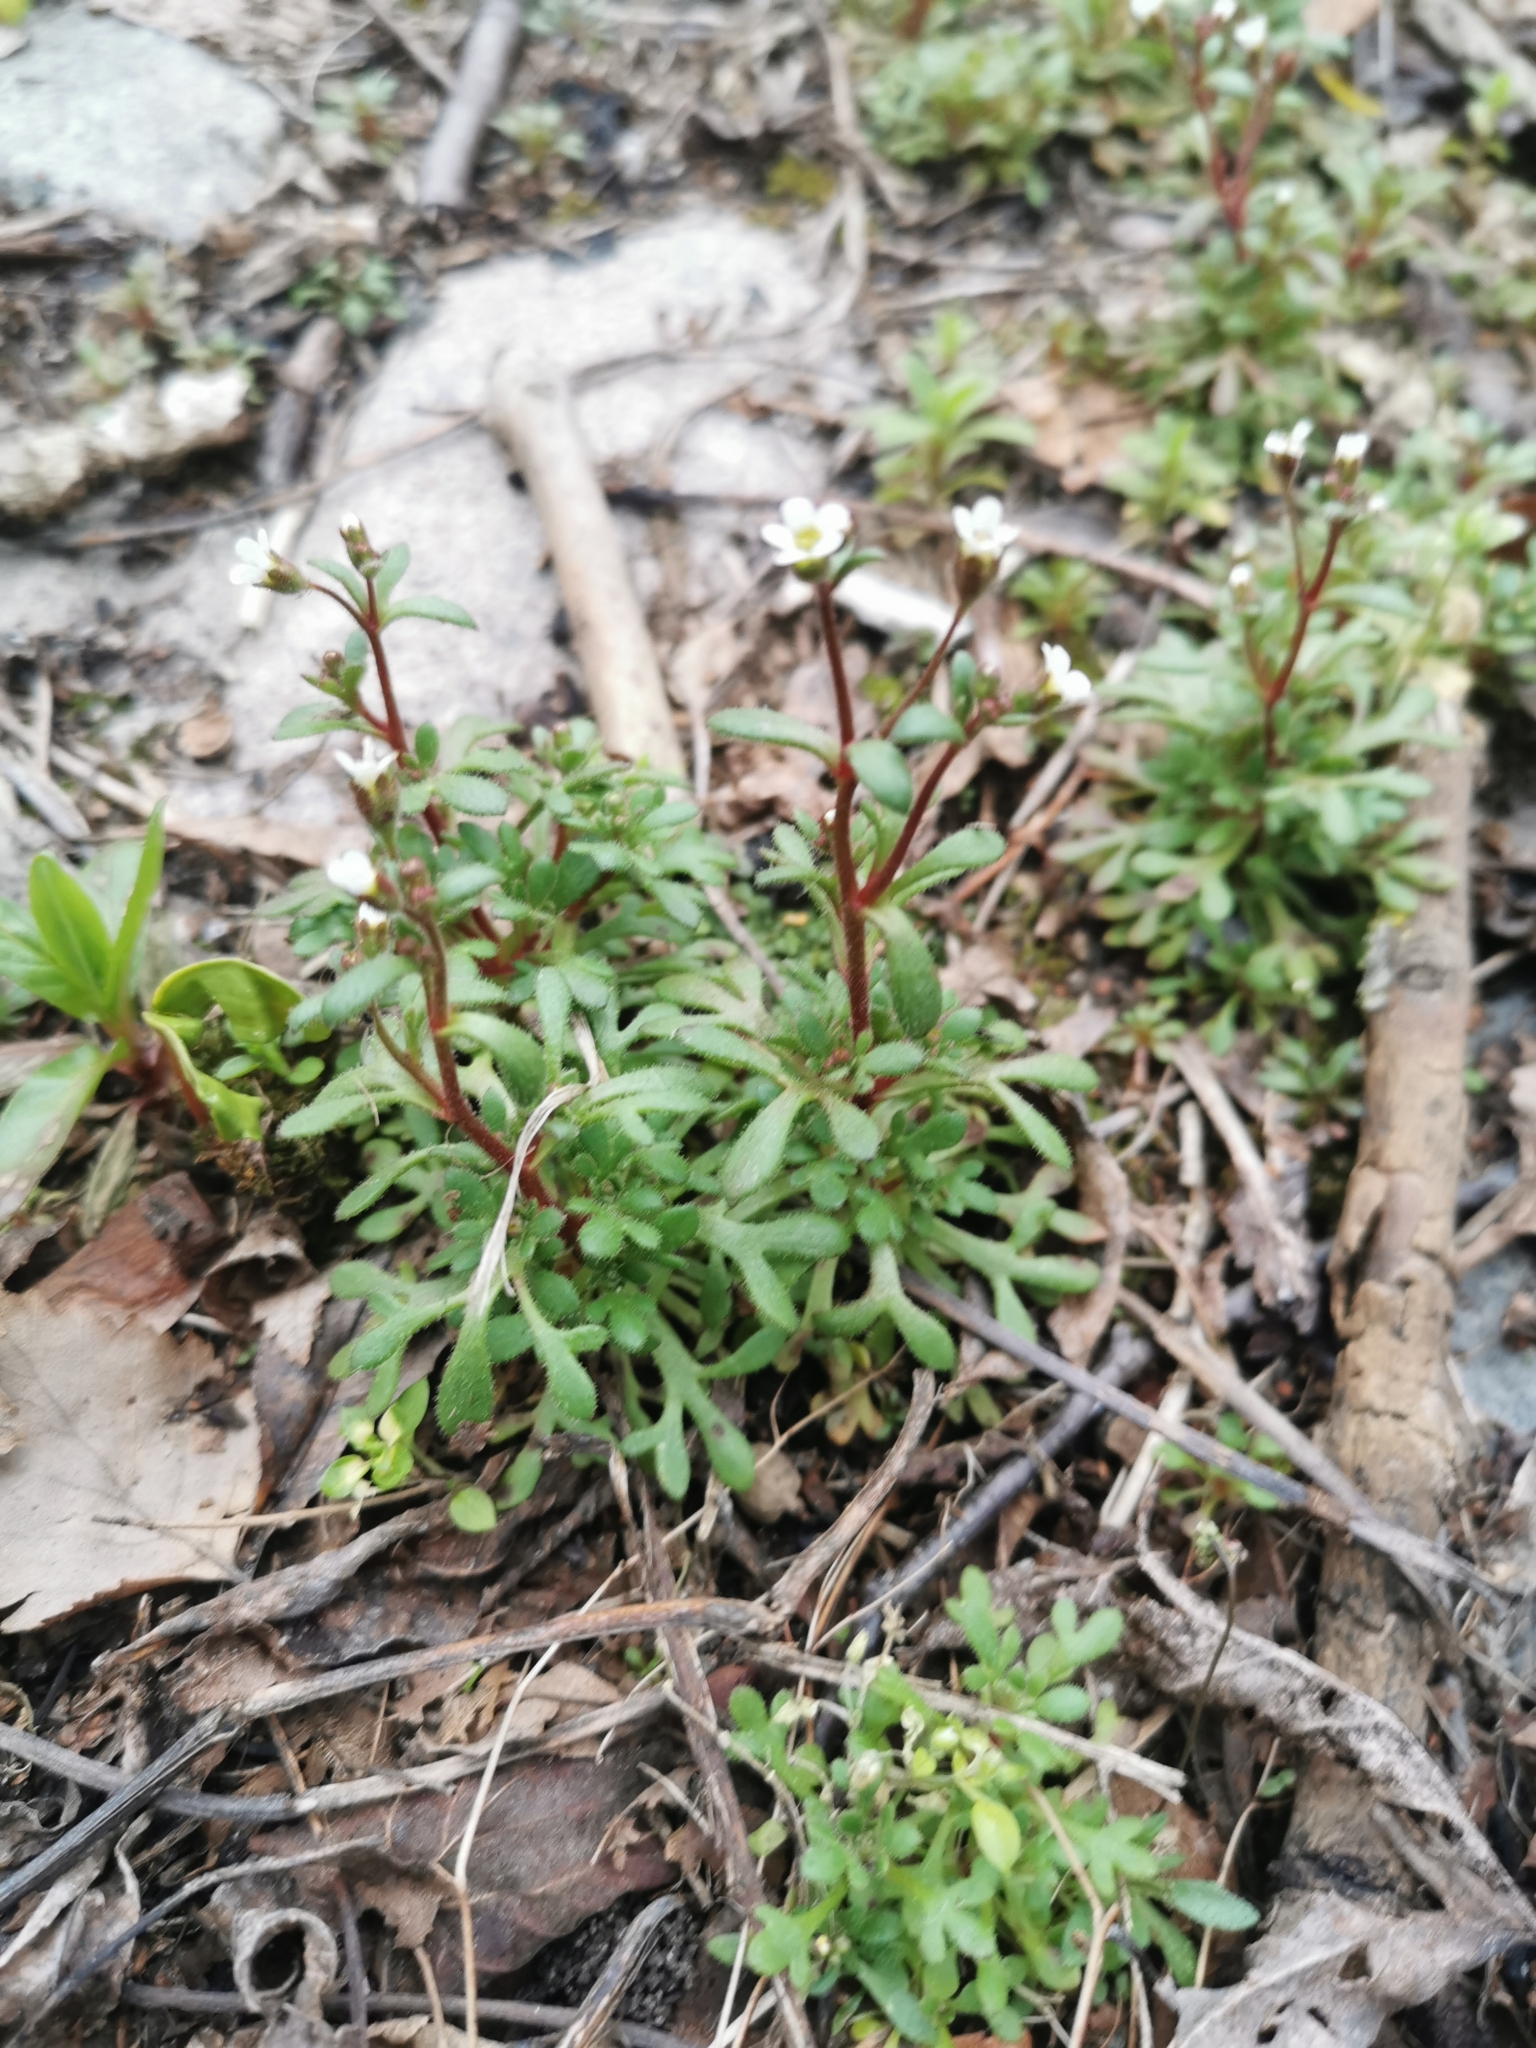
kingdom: Plantae
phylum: Tracheophyta
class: Magnoliopsida
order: Saxifragales
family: Saxifragaceae
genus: Saxifraga
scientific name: Saxifraga tridactylites
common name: Rue-leaved saxifrage
